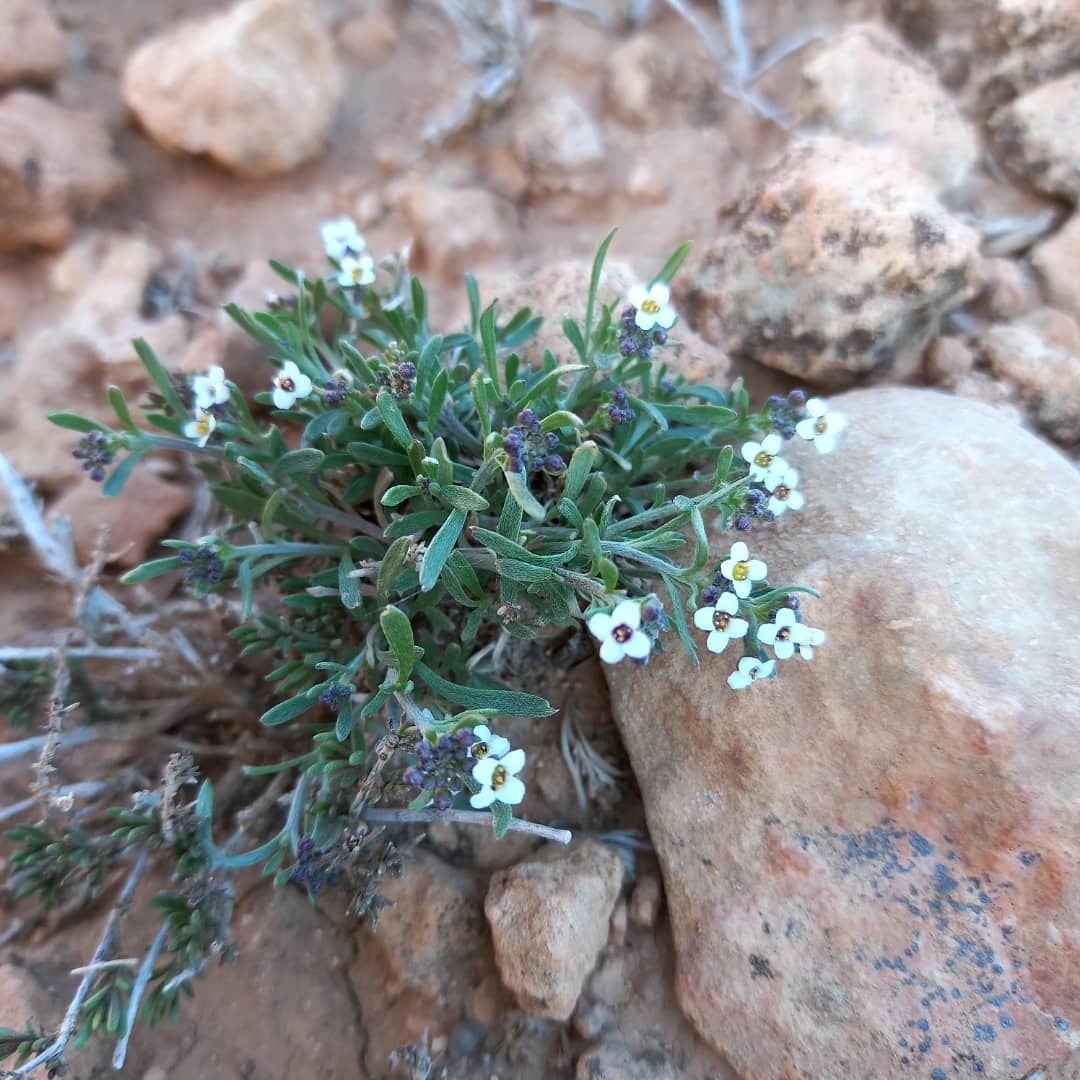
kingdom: Plantae
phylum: Tracheophyta
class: Magnoliopsida
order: Brassicales
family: Brassicaceae
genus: Lobularia
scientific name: Lobularia maritima
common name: Sweet alison
